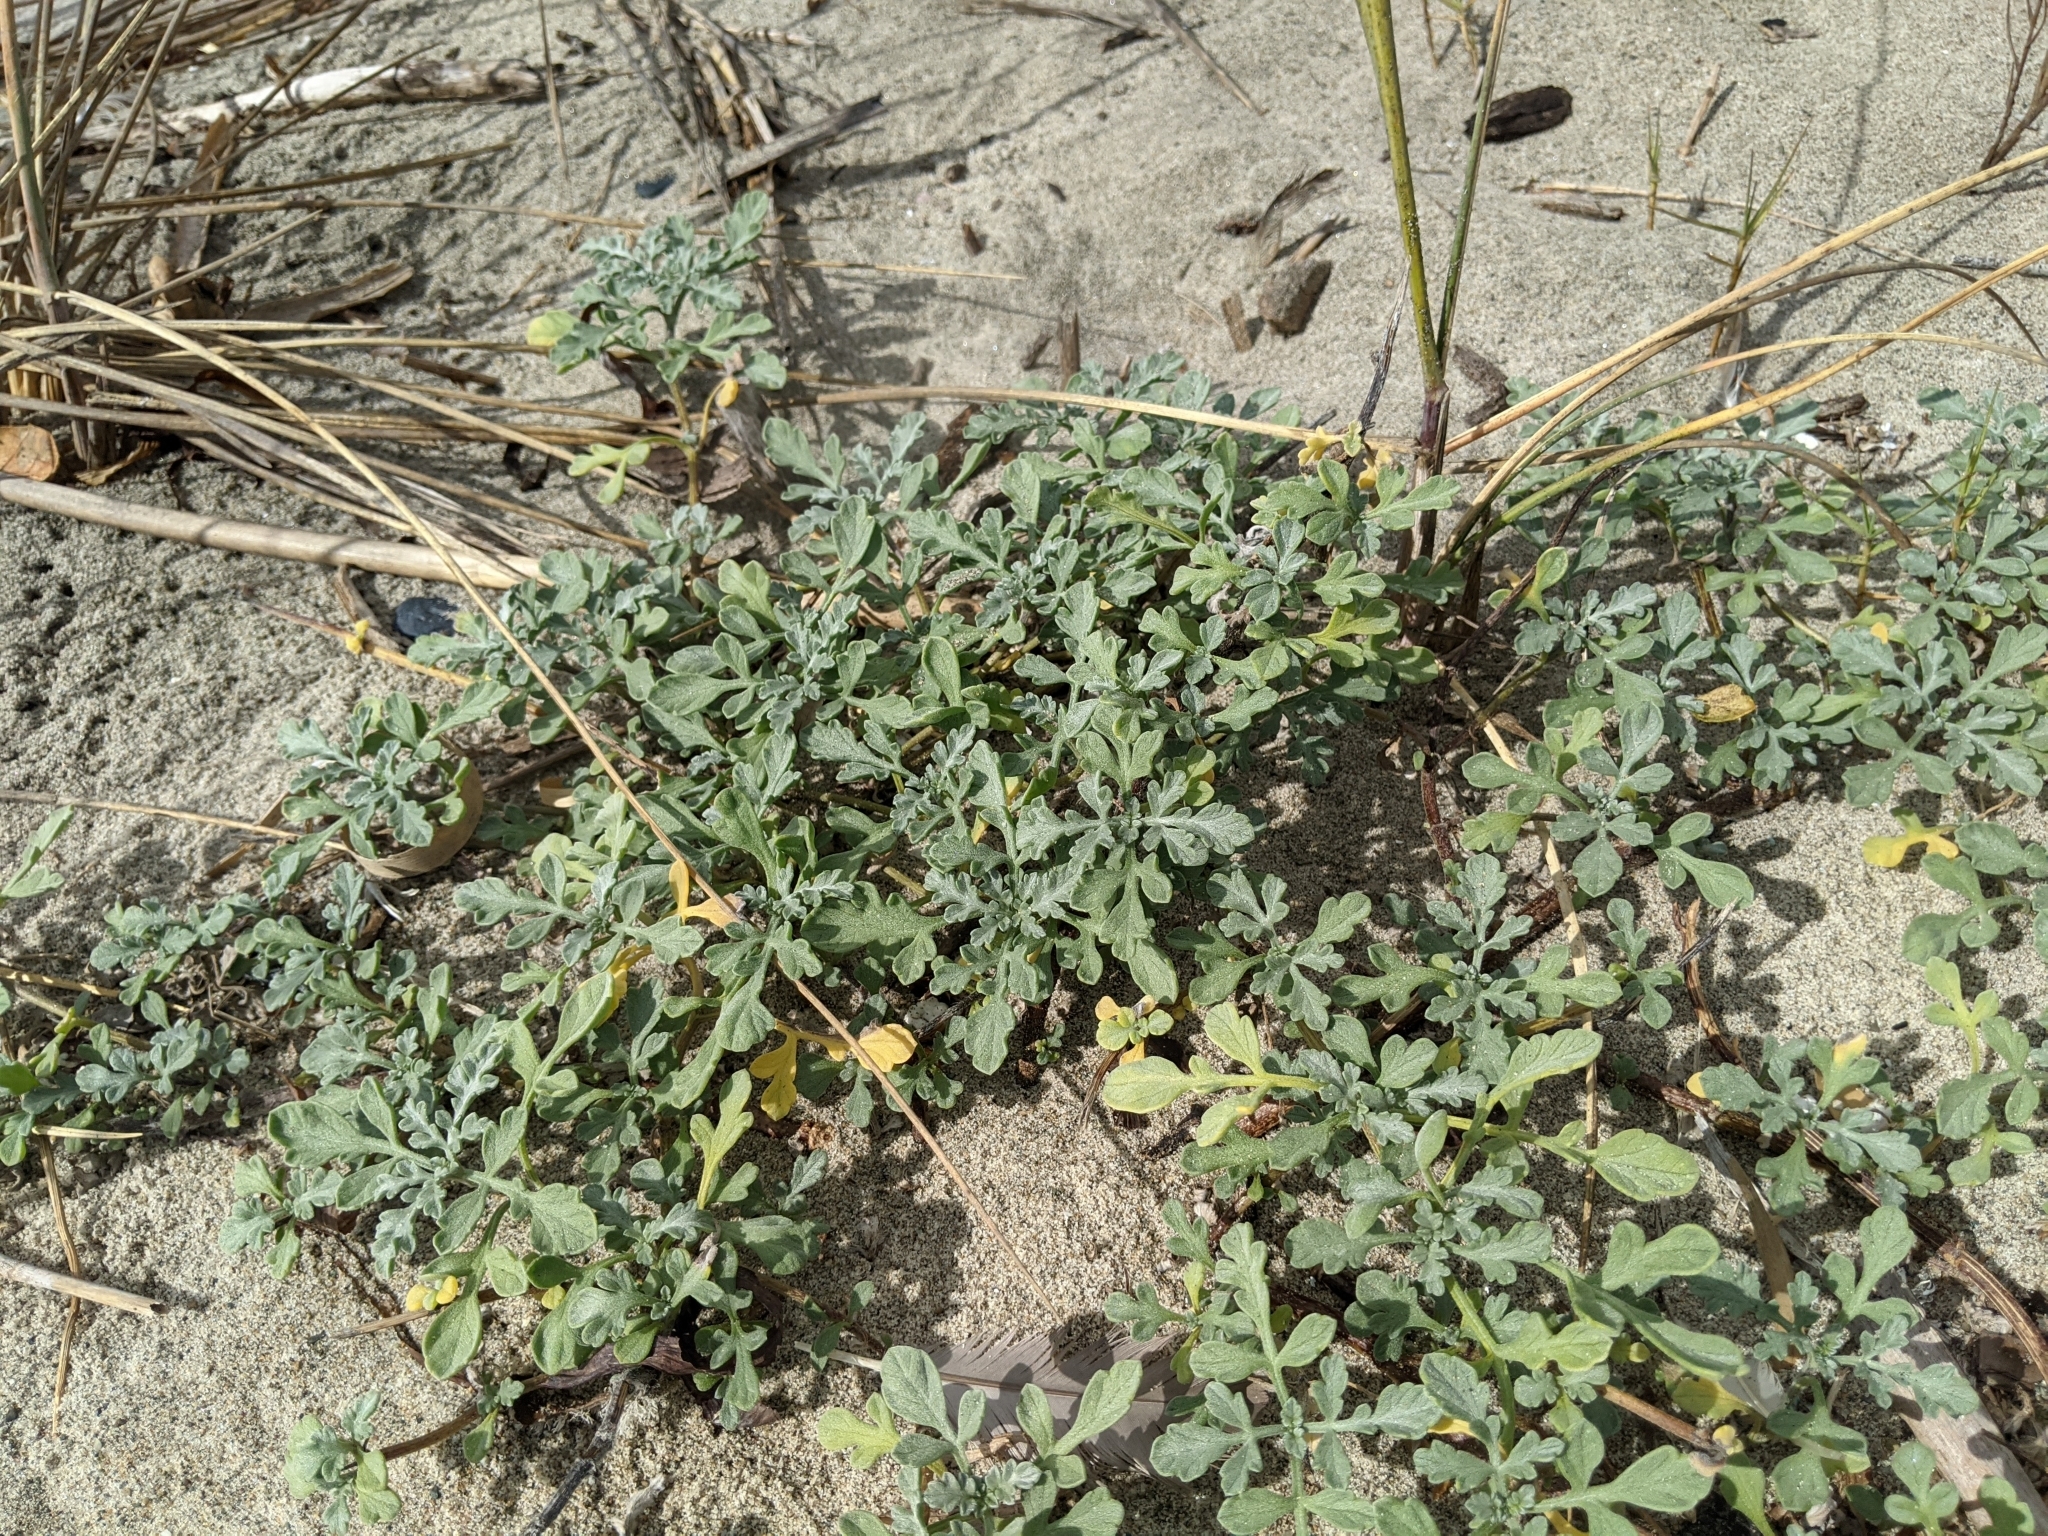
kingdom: Plantae
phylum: Tracheophyta
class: Magnoliopsida
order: Asterales
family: Asteraceae
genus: Ambrosia
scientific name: Ambrosia chamissonis
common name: Beachbur
